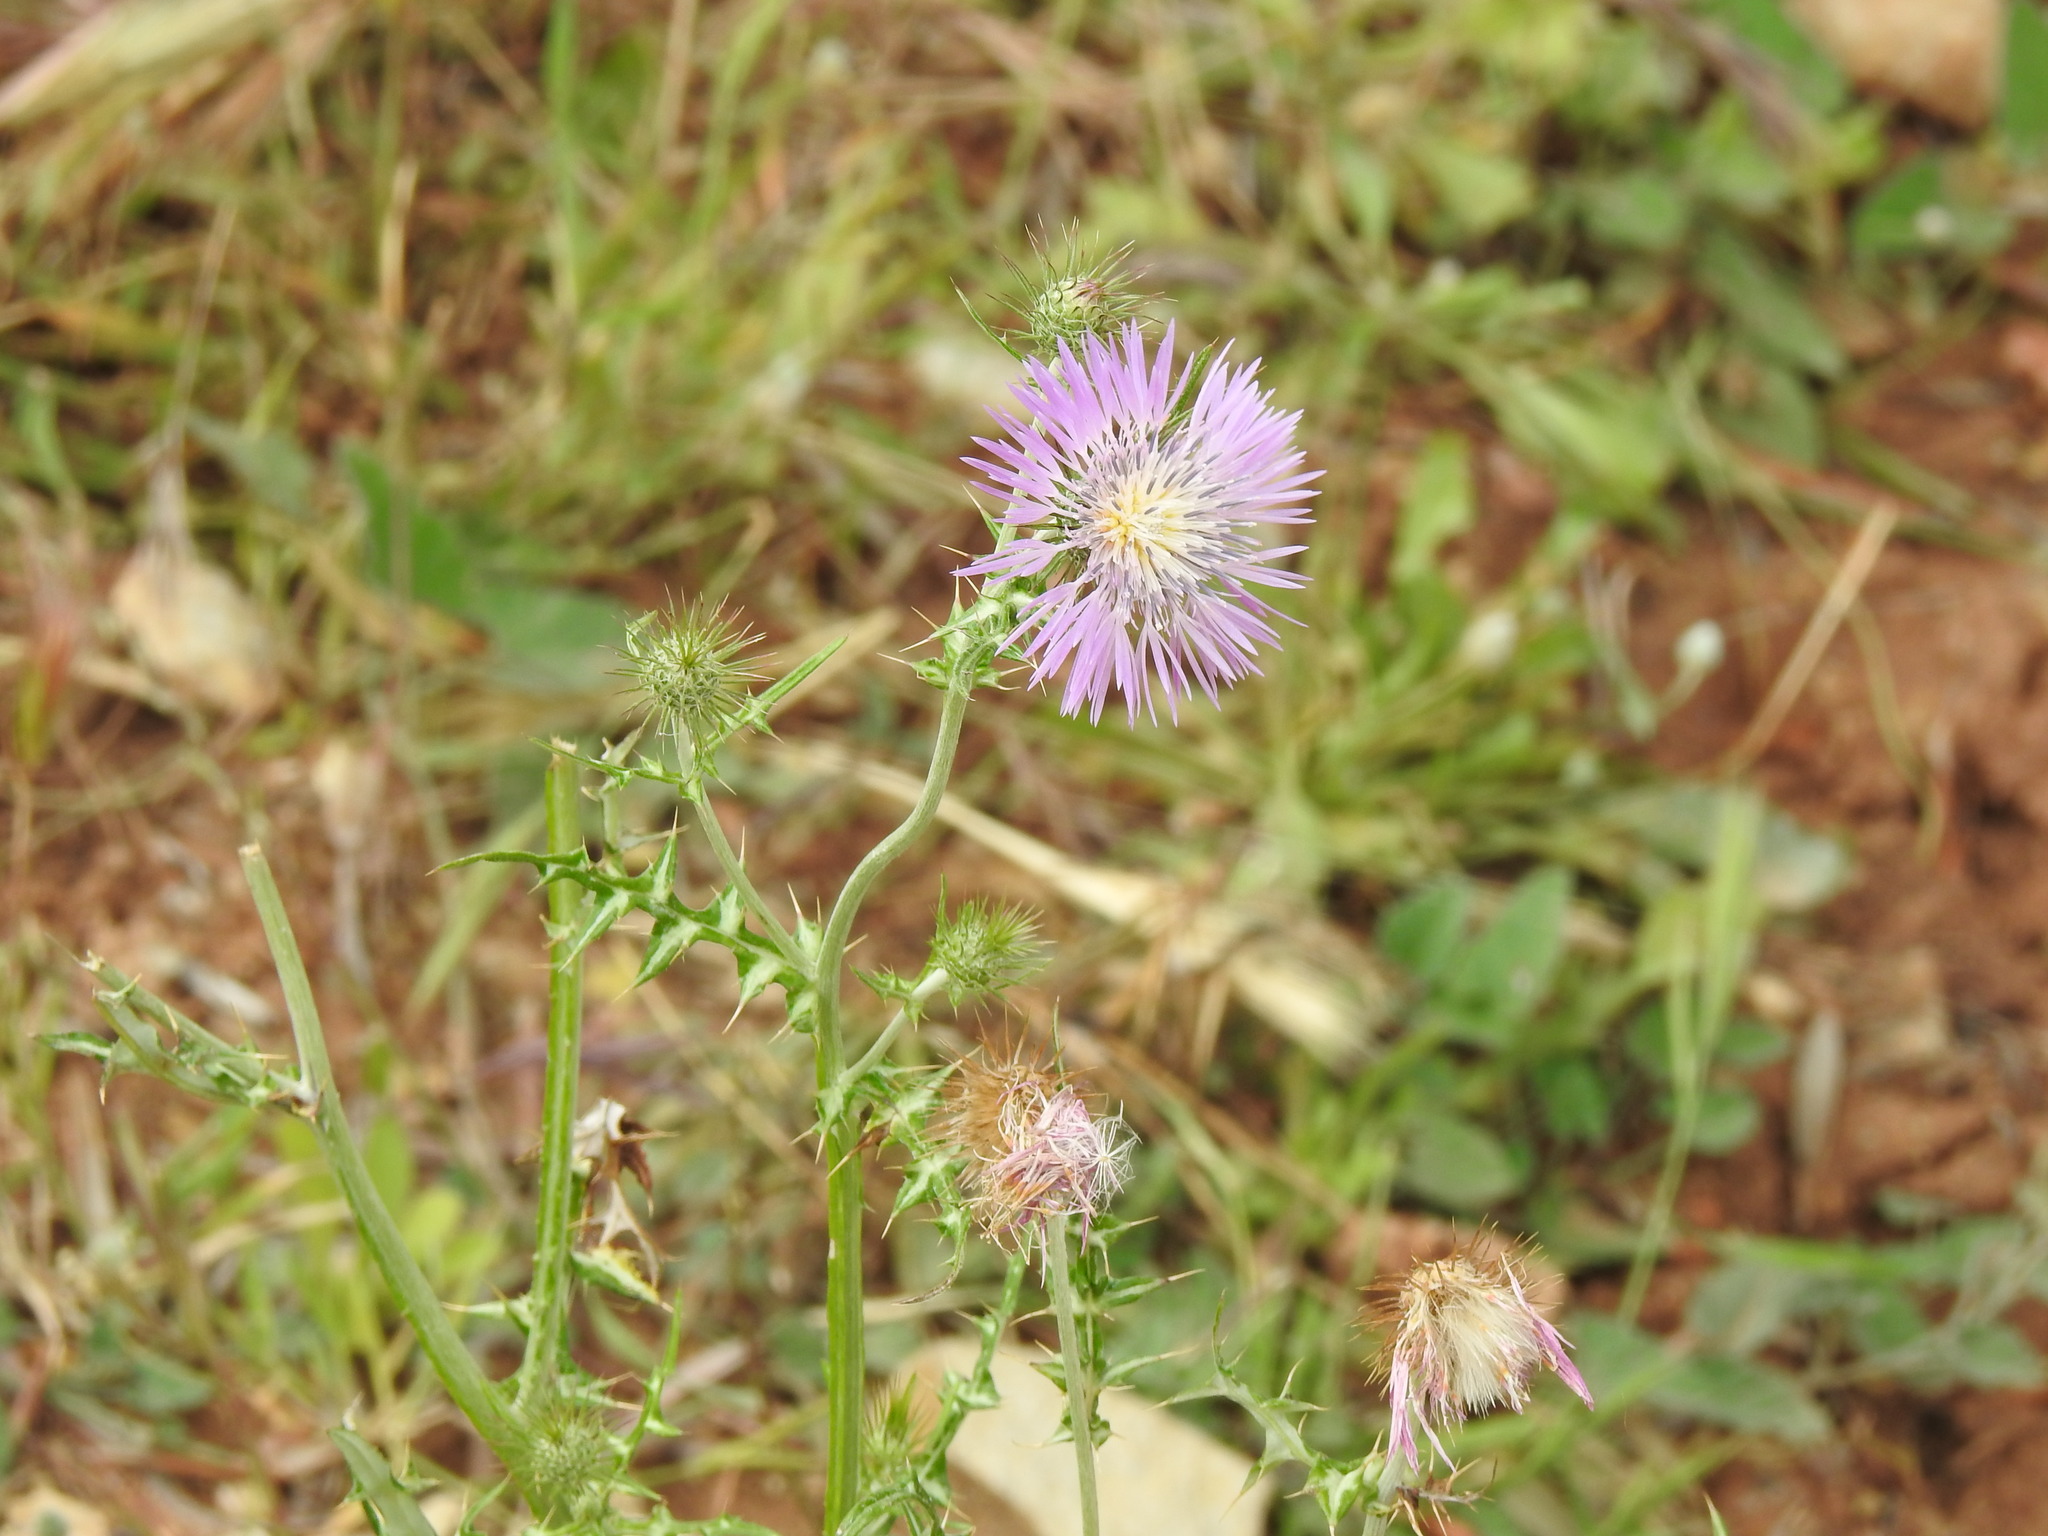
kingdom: Plantae
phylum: Tracheophyta
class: Magnoliopsida
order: Asterales
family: Asteraceae
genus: Galactites
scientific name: Galactites tomentosa
